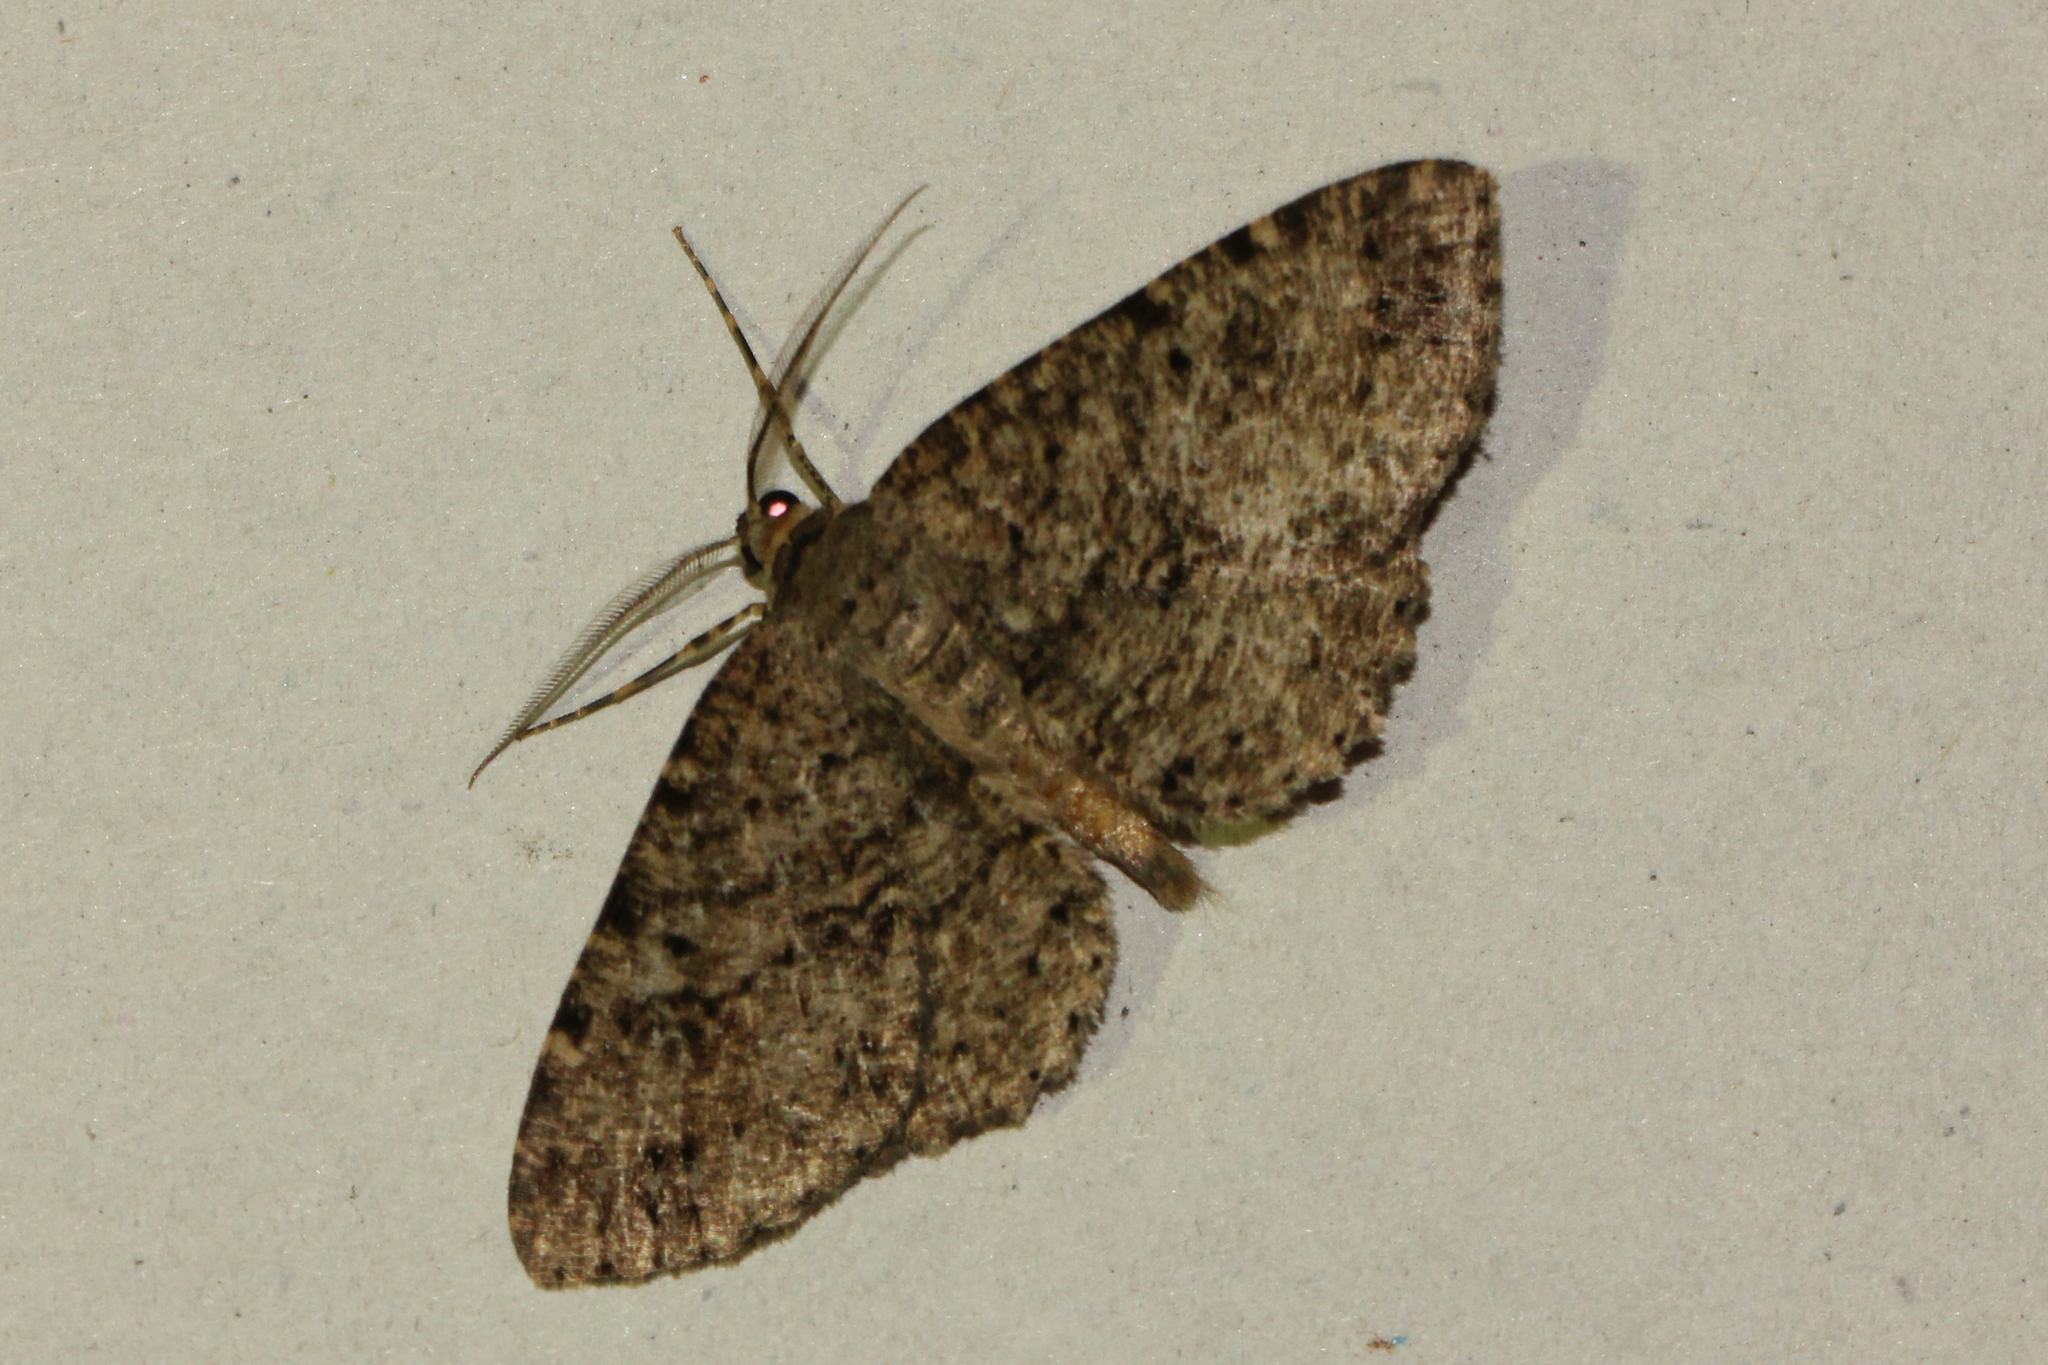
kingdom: Animalia
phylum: Arthropoda
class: Insecta
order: Lepidoptera
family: Geometridae
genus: Melanolophia
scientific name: Melanolophia canadaria
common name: Canadian melanolophia
